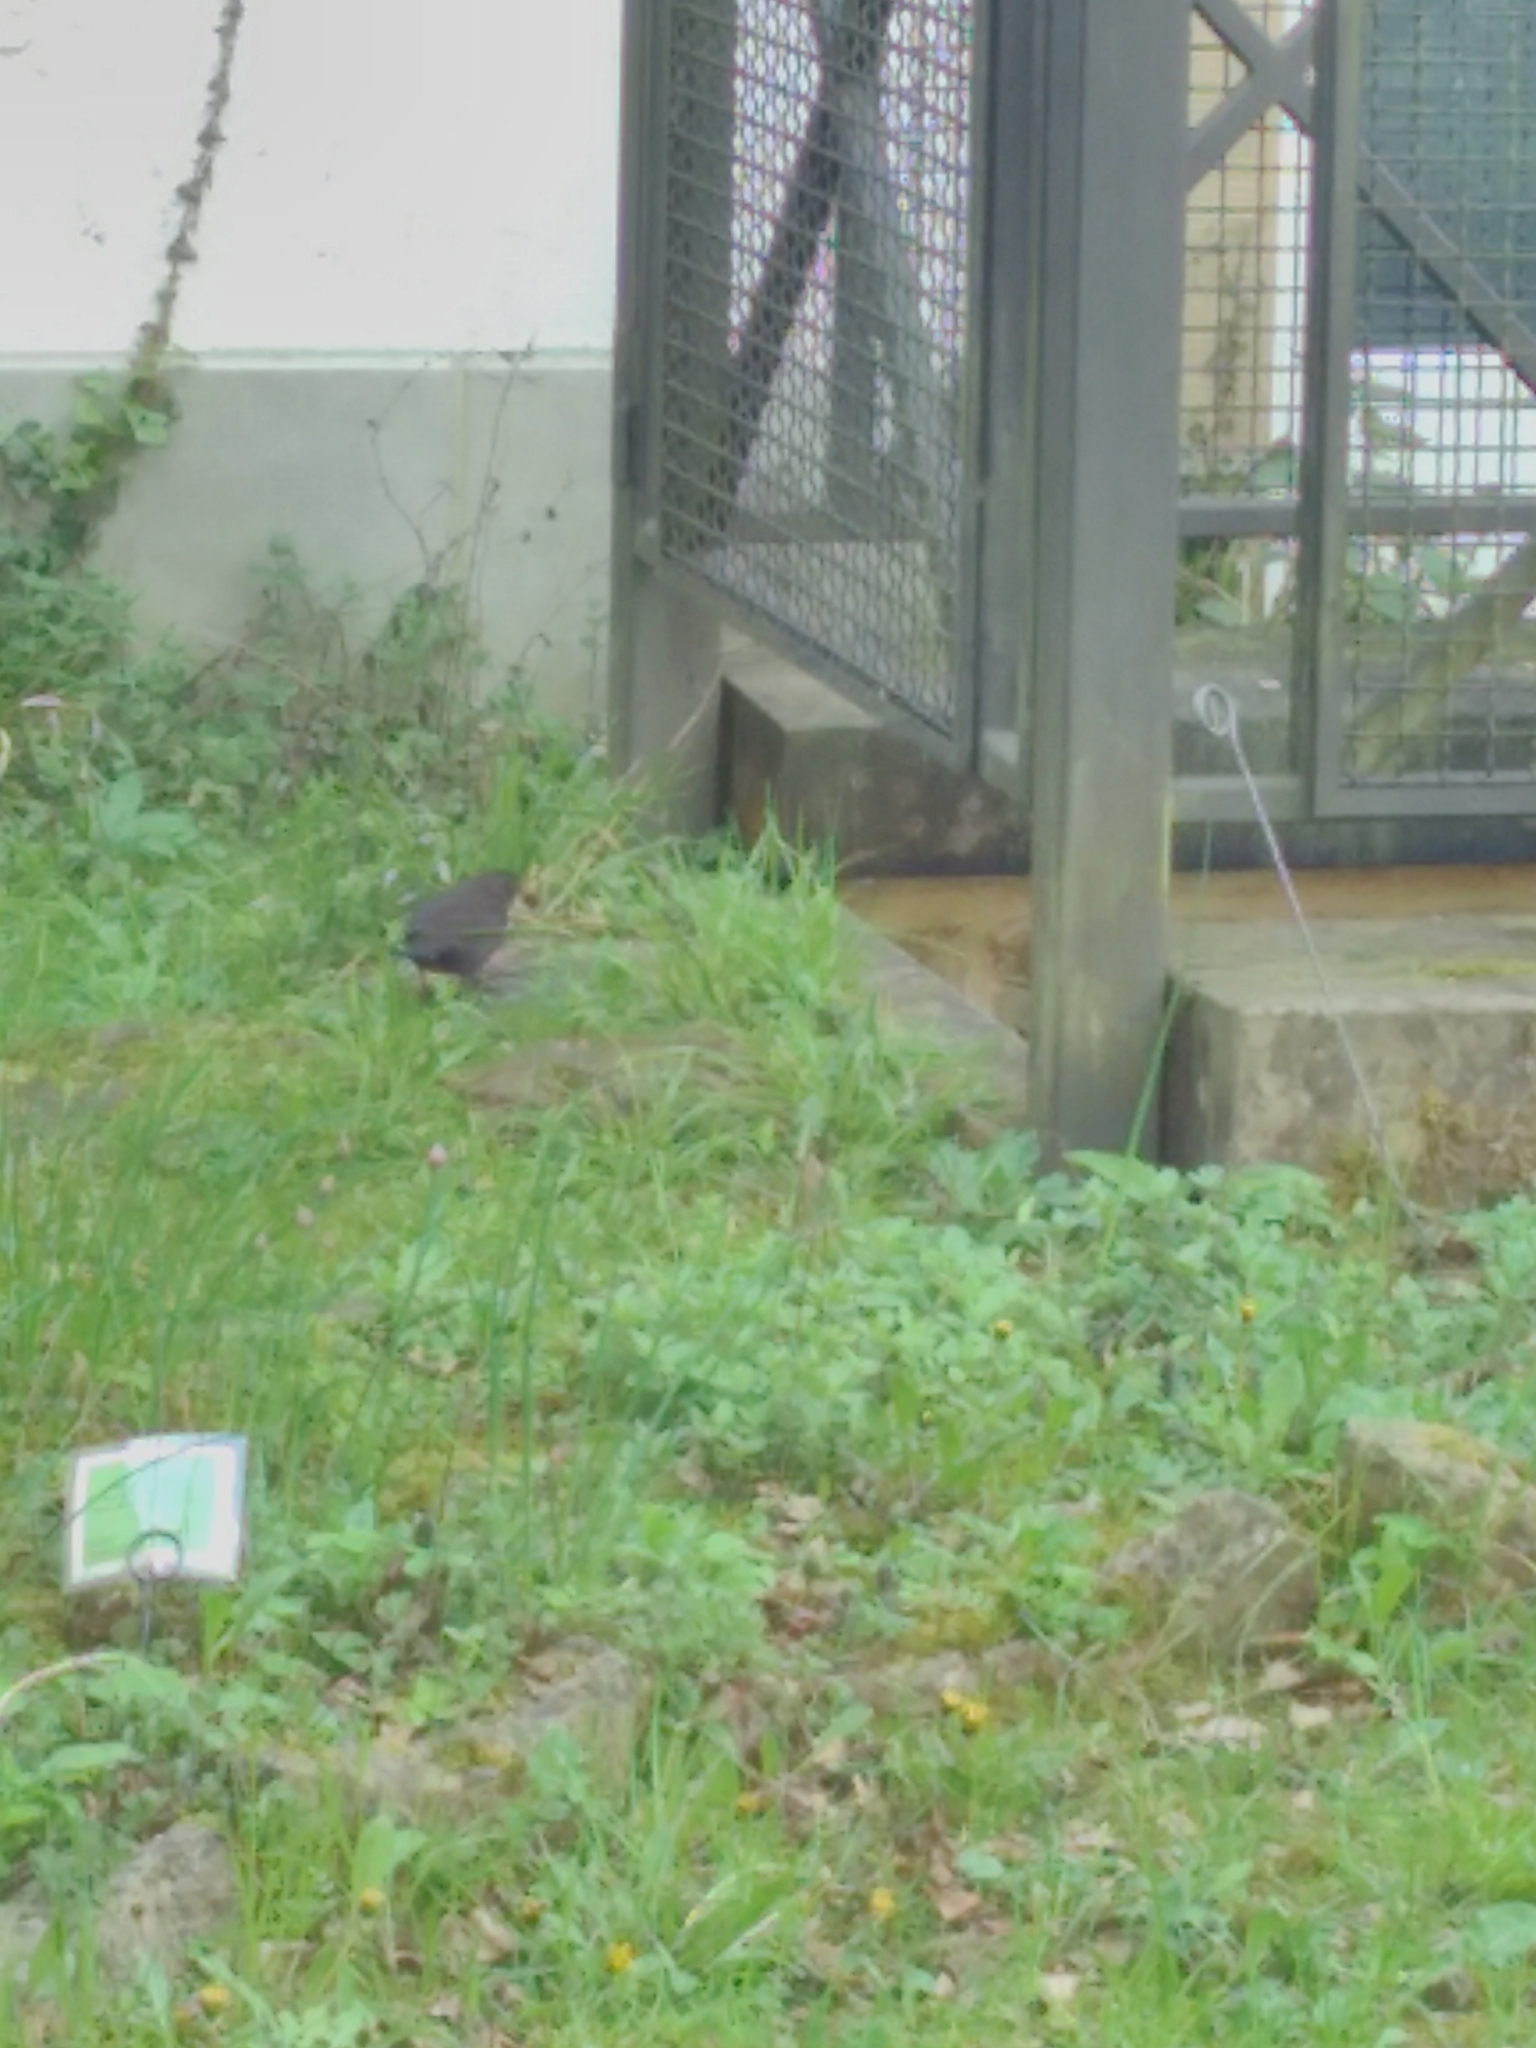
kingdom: Animalia
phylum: Chordata
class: Aves
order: Passeriformes
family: Turdidae
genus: Turdus
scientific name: Turdus merula
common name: Common blackbird
